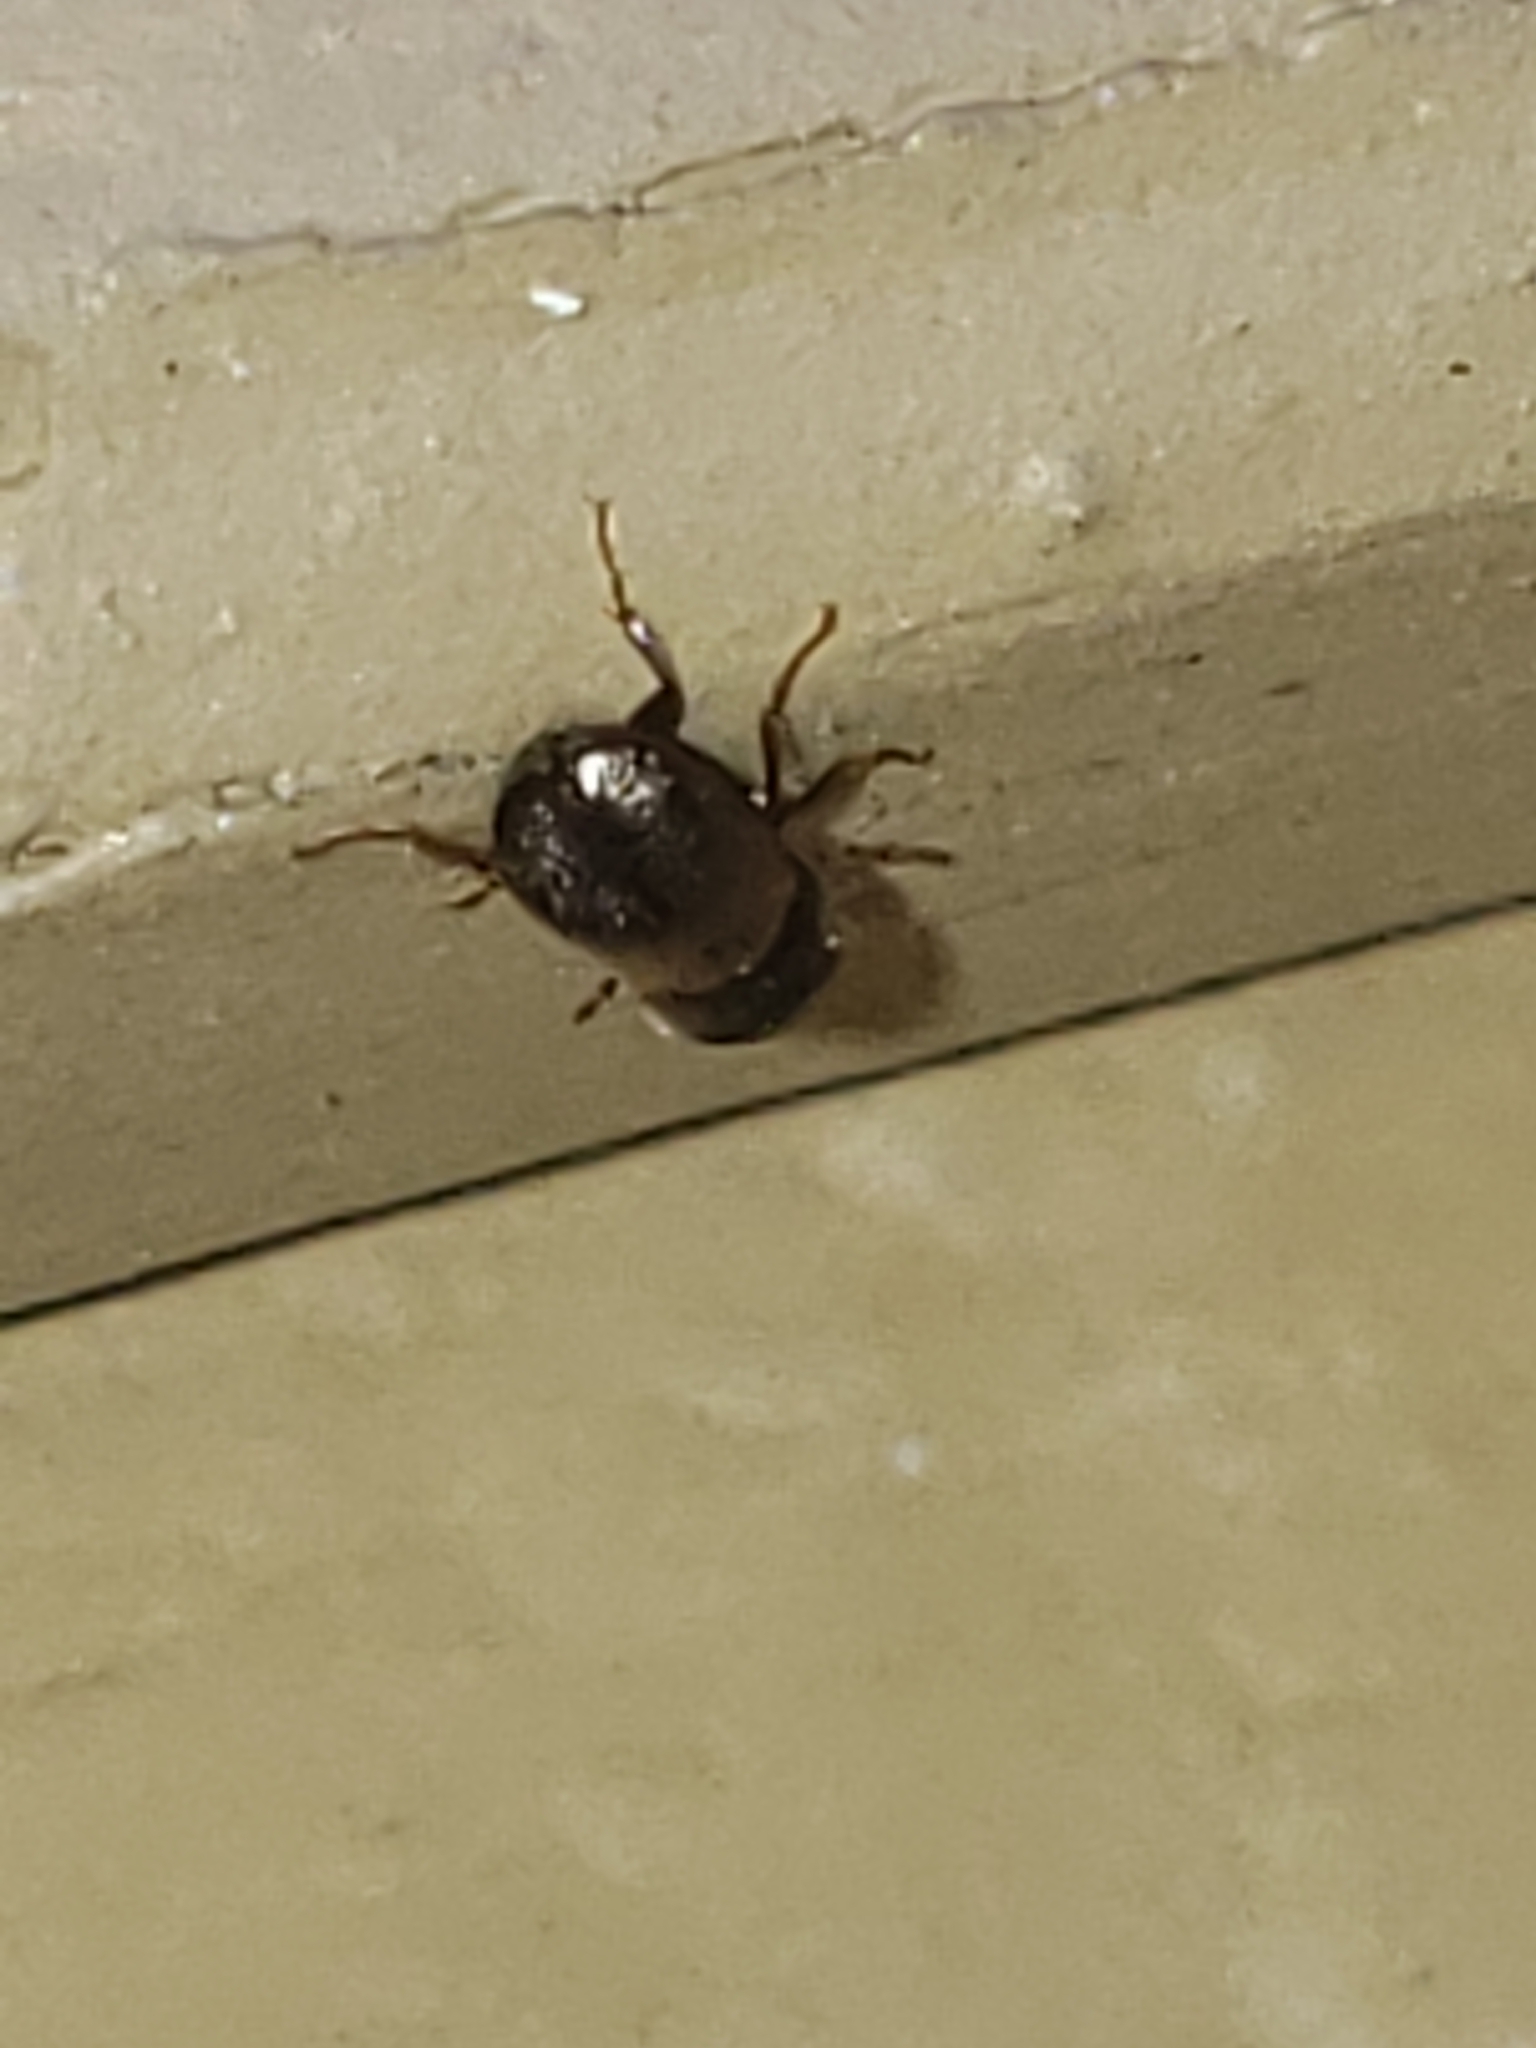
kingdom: Animalia
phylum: Arthropoda
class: Insecta
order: Coleoptera
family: Bostrichidae
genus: Xylobiops
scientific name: Xylobiops basilaris
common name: Red-shouldered bostrichid
